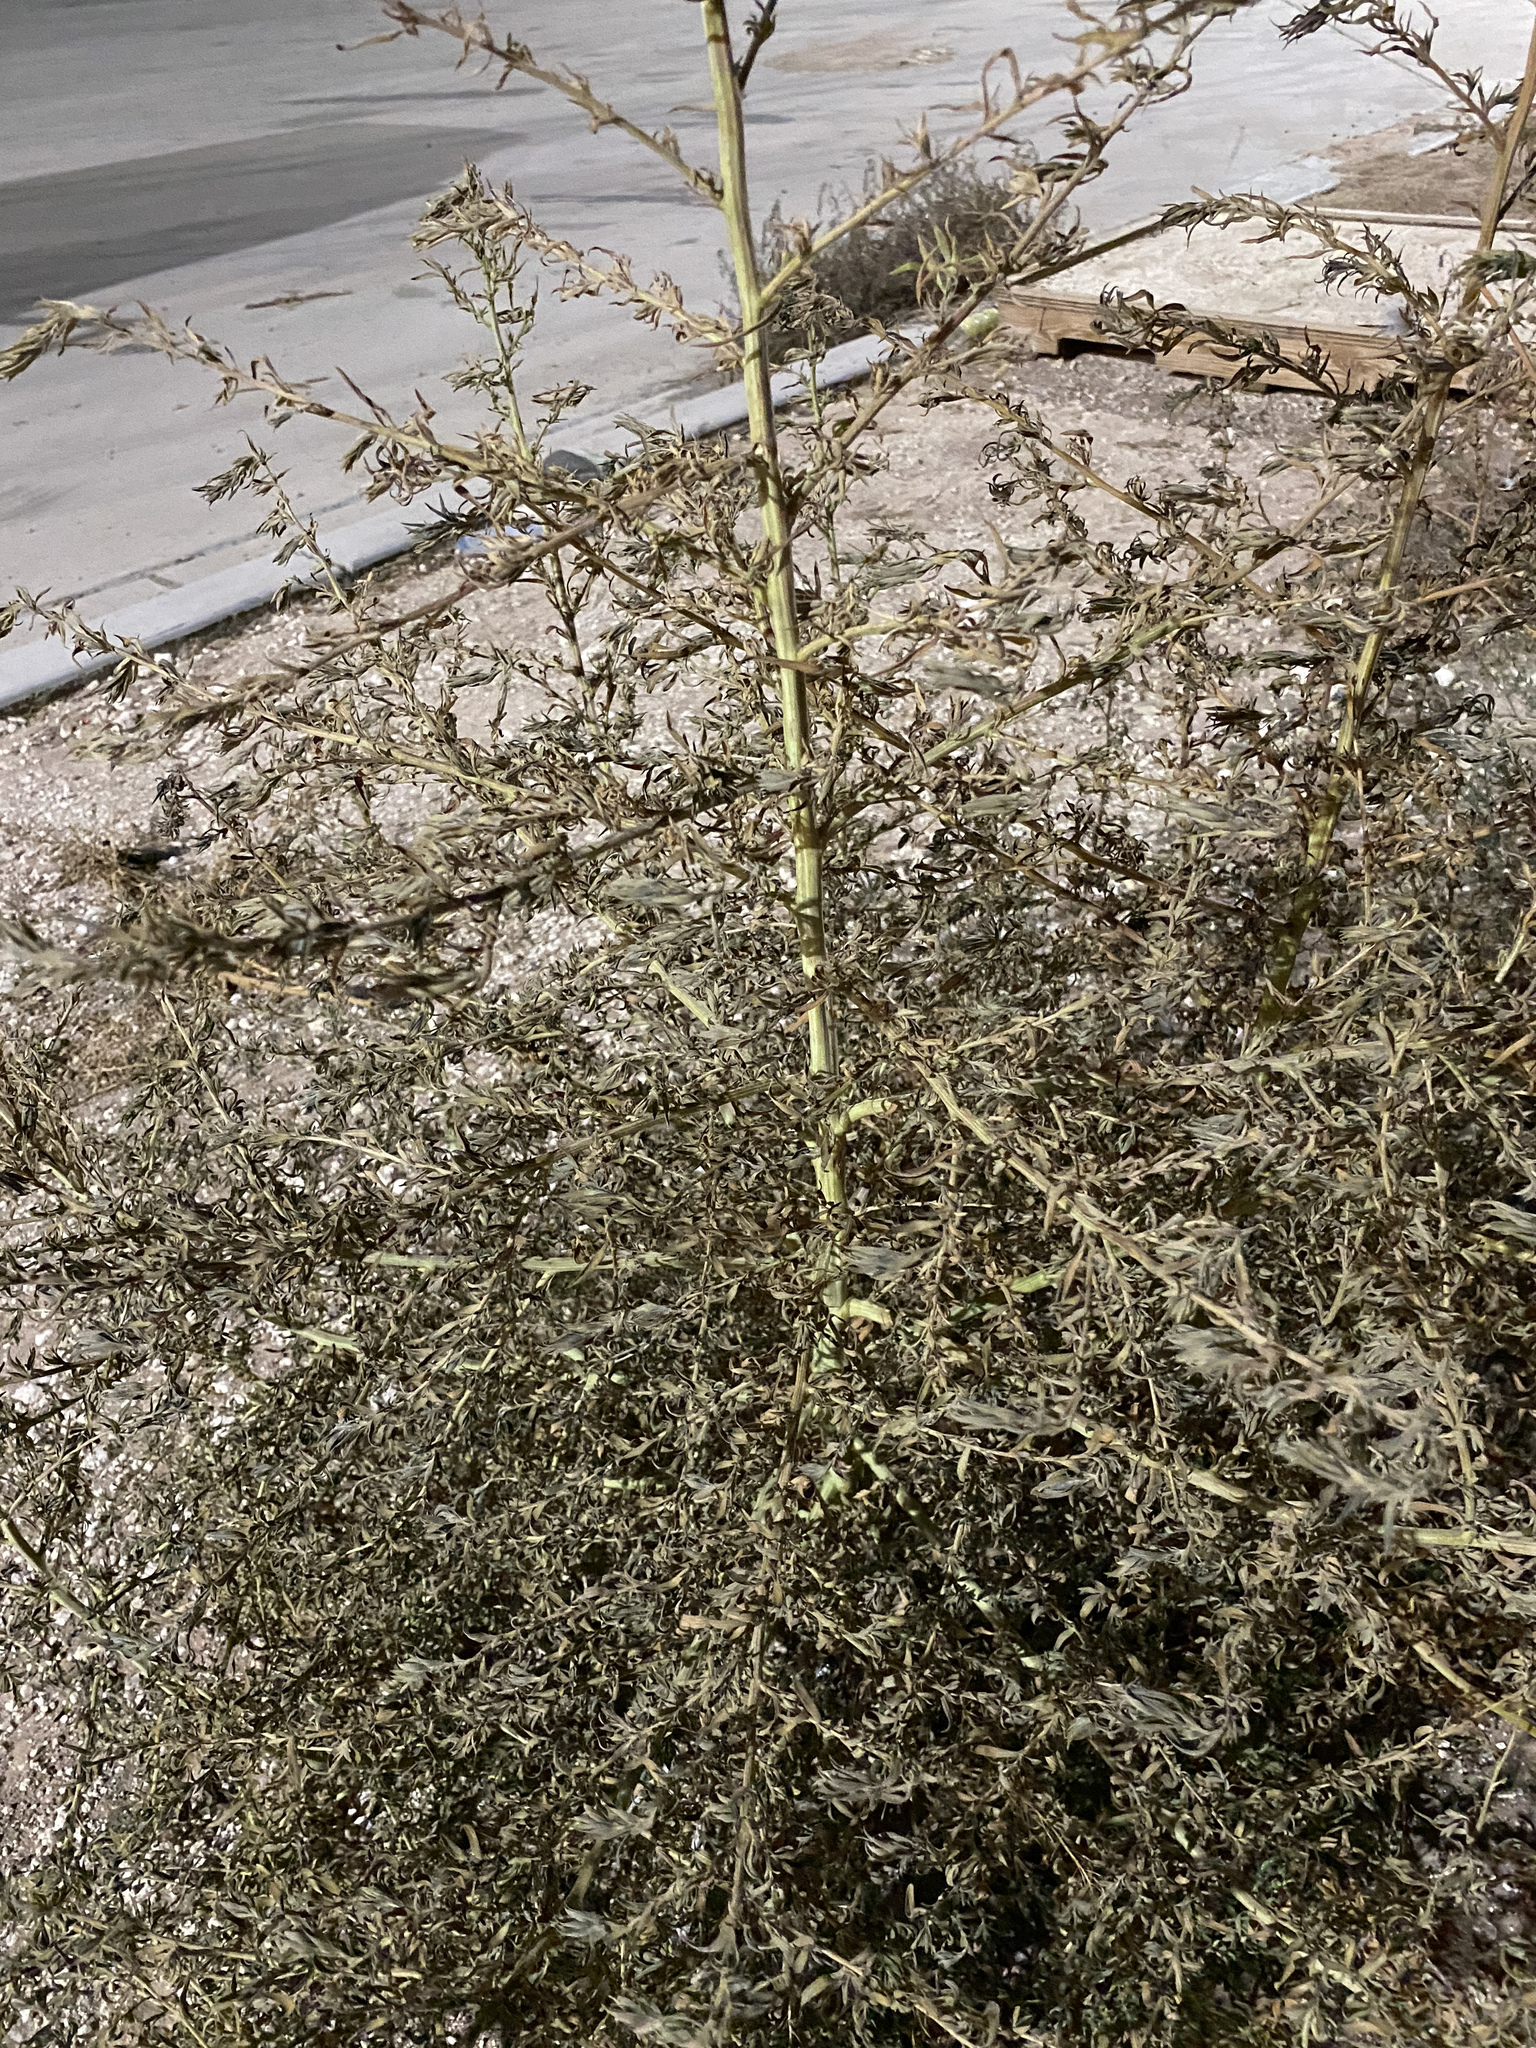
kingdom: Plantae
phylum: Tracheophyta
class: Magnoliopsida
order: Caryophyllales
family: Amaranthaceae
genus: Bassia
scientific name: Bassia scoparia
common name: Belvedere
